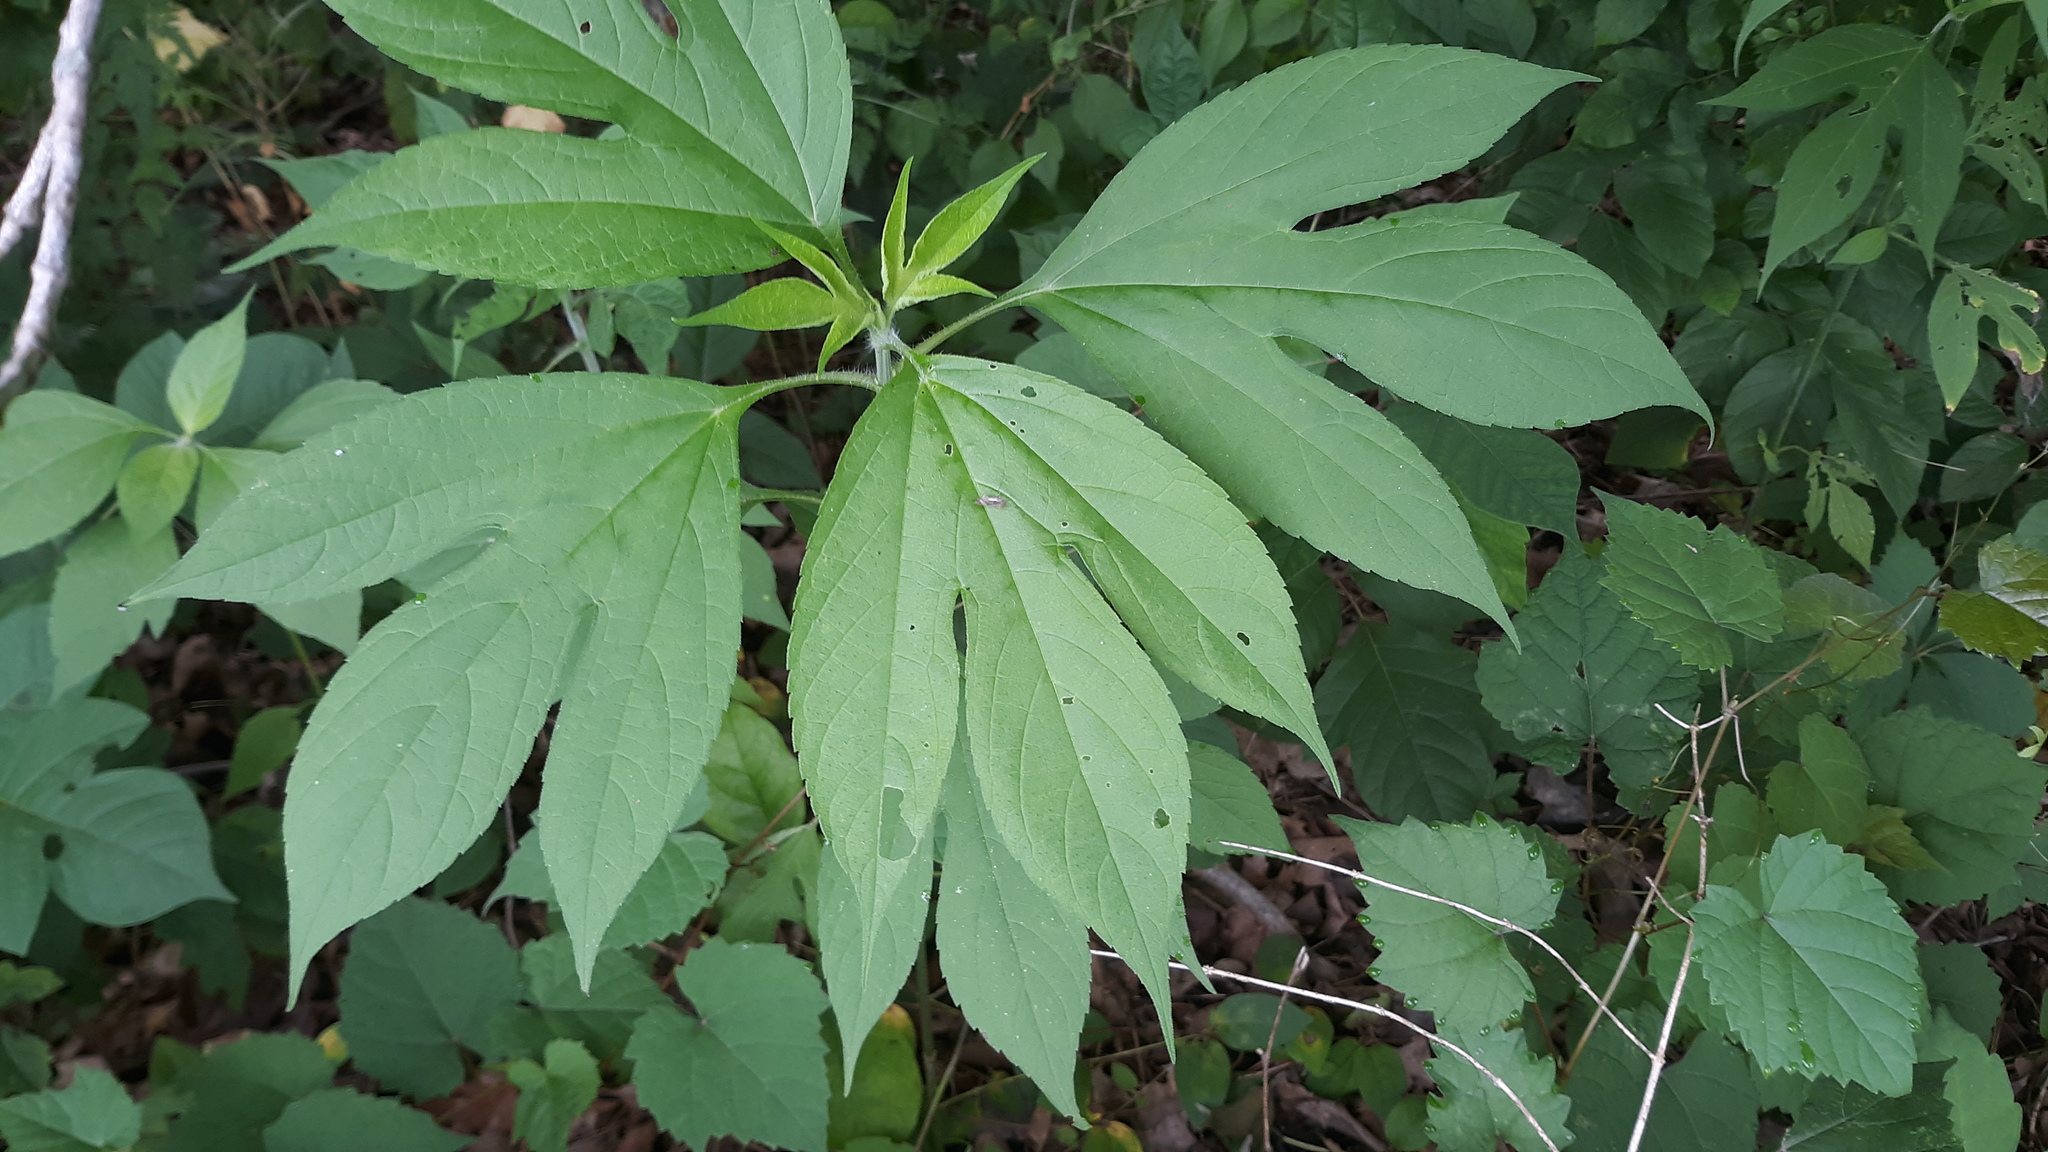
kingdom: Plantae
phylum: Tracheophyta
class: Magnoliopsida
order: Asterales
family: Asteraceae
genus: Ambrosia
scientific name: Ambrosia trifida
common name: Giant ragweed
